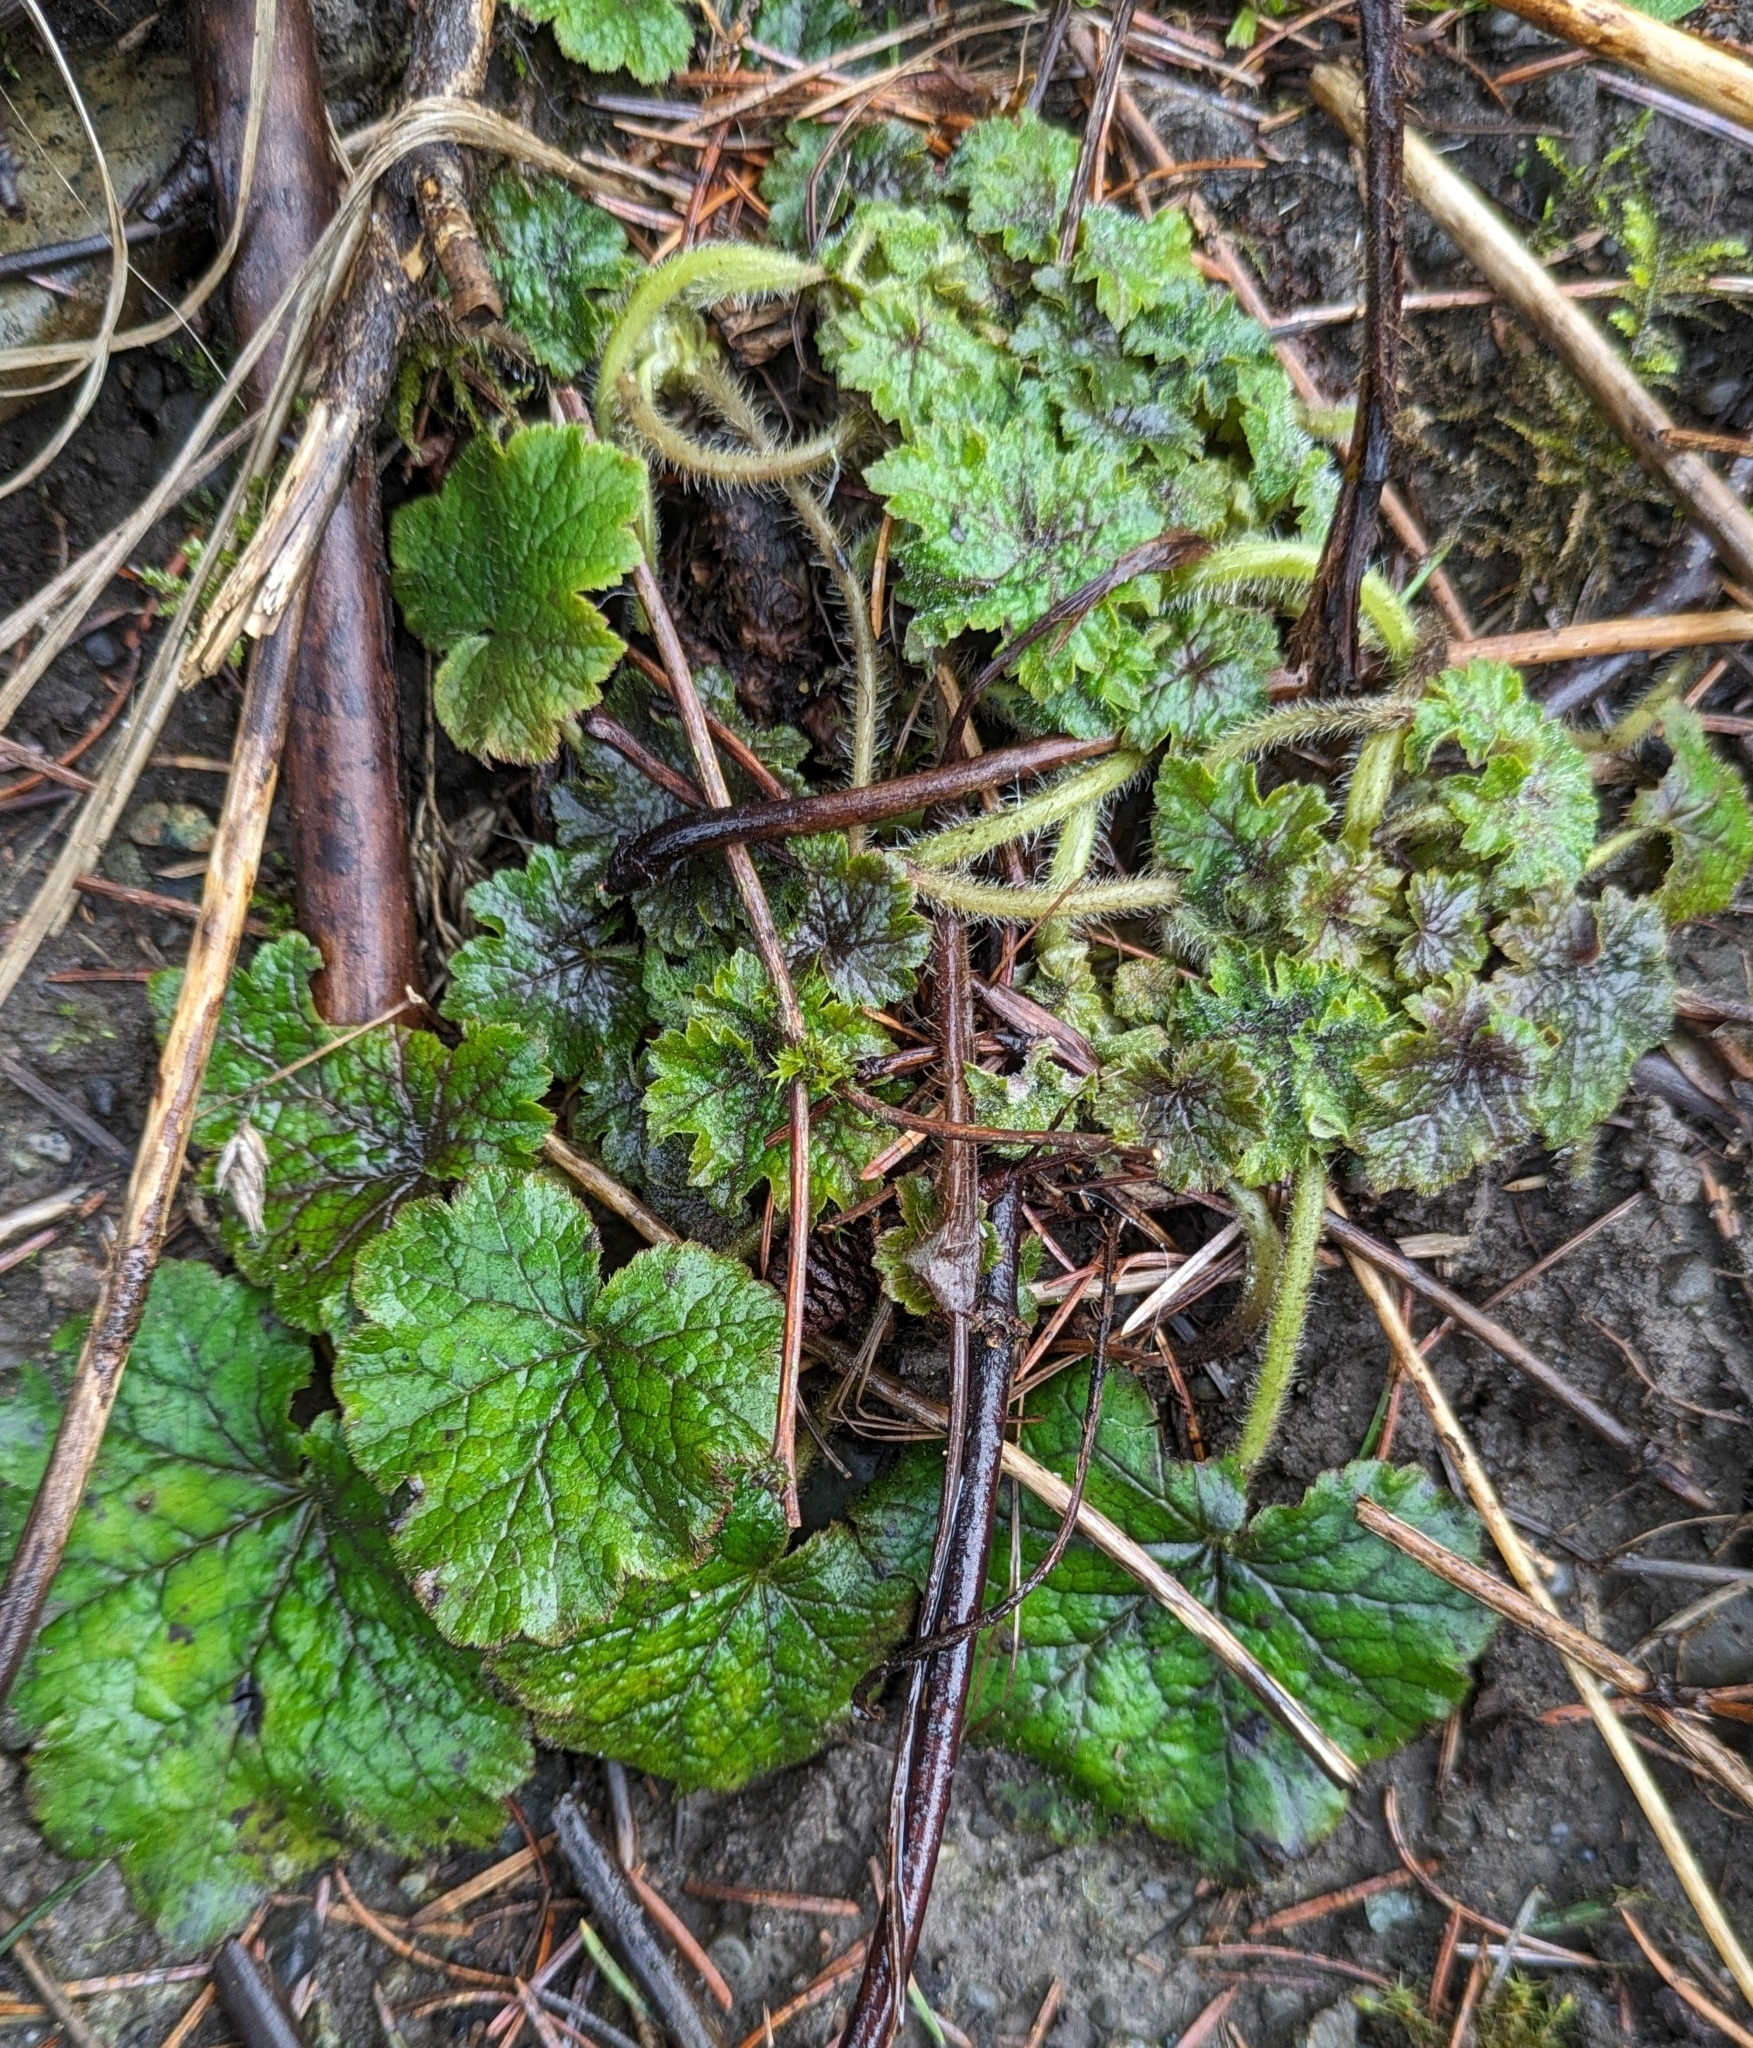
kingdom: Plantae
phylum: Tracheophyta
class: Magnoliopsida
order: Saxifragales
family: Saxifragaceae
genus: Tellima
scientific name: Tellima grandiflora
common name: Fringecups
